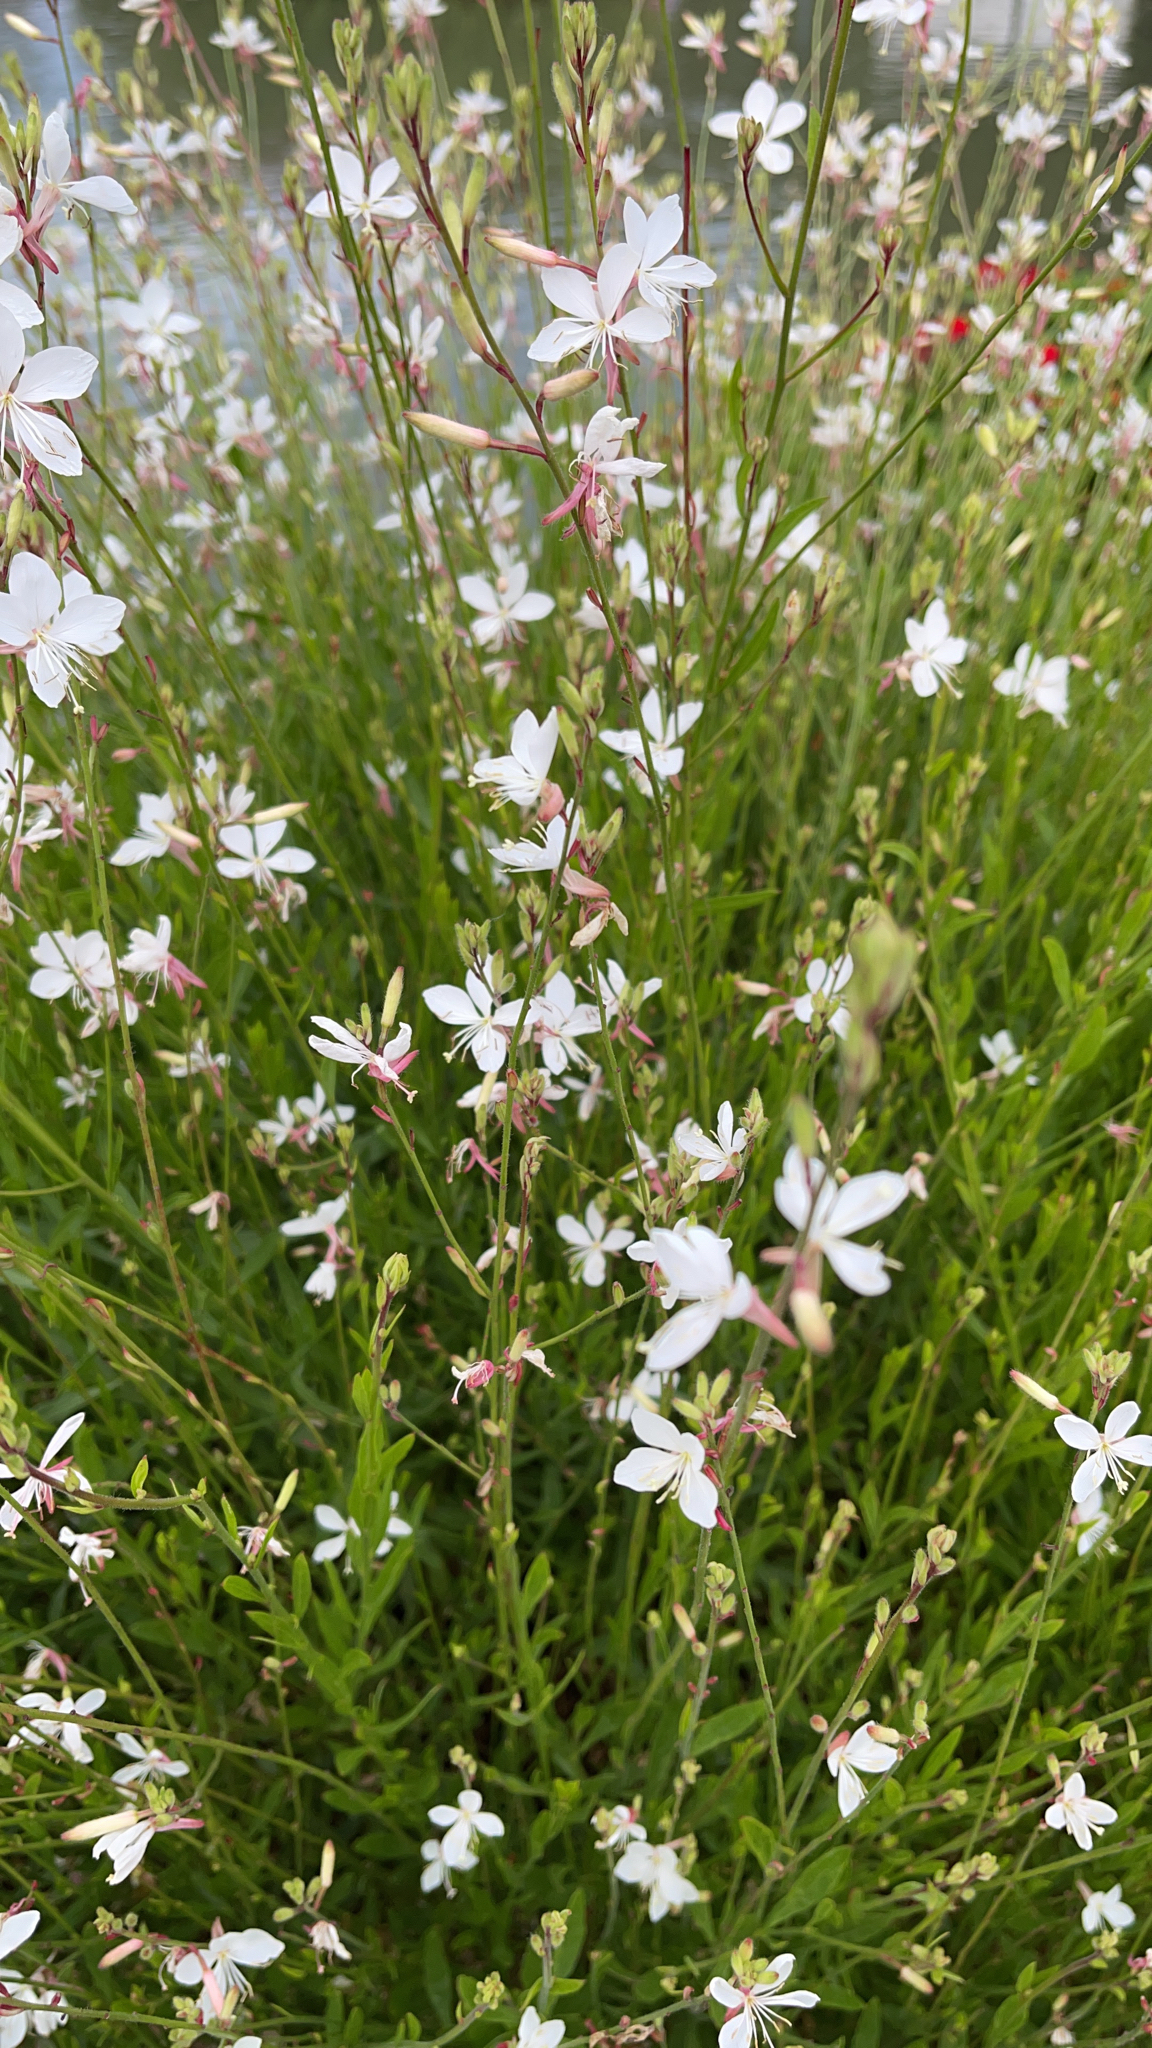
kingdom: Plantae
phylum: Tracheophyta
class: Magnoliopsida
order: Myrtales
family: Onagraceae
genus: Oenothera
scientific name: Oenothera lindheimeri
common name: Lindheimer's beeblossom
